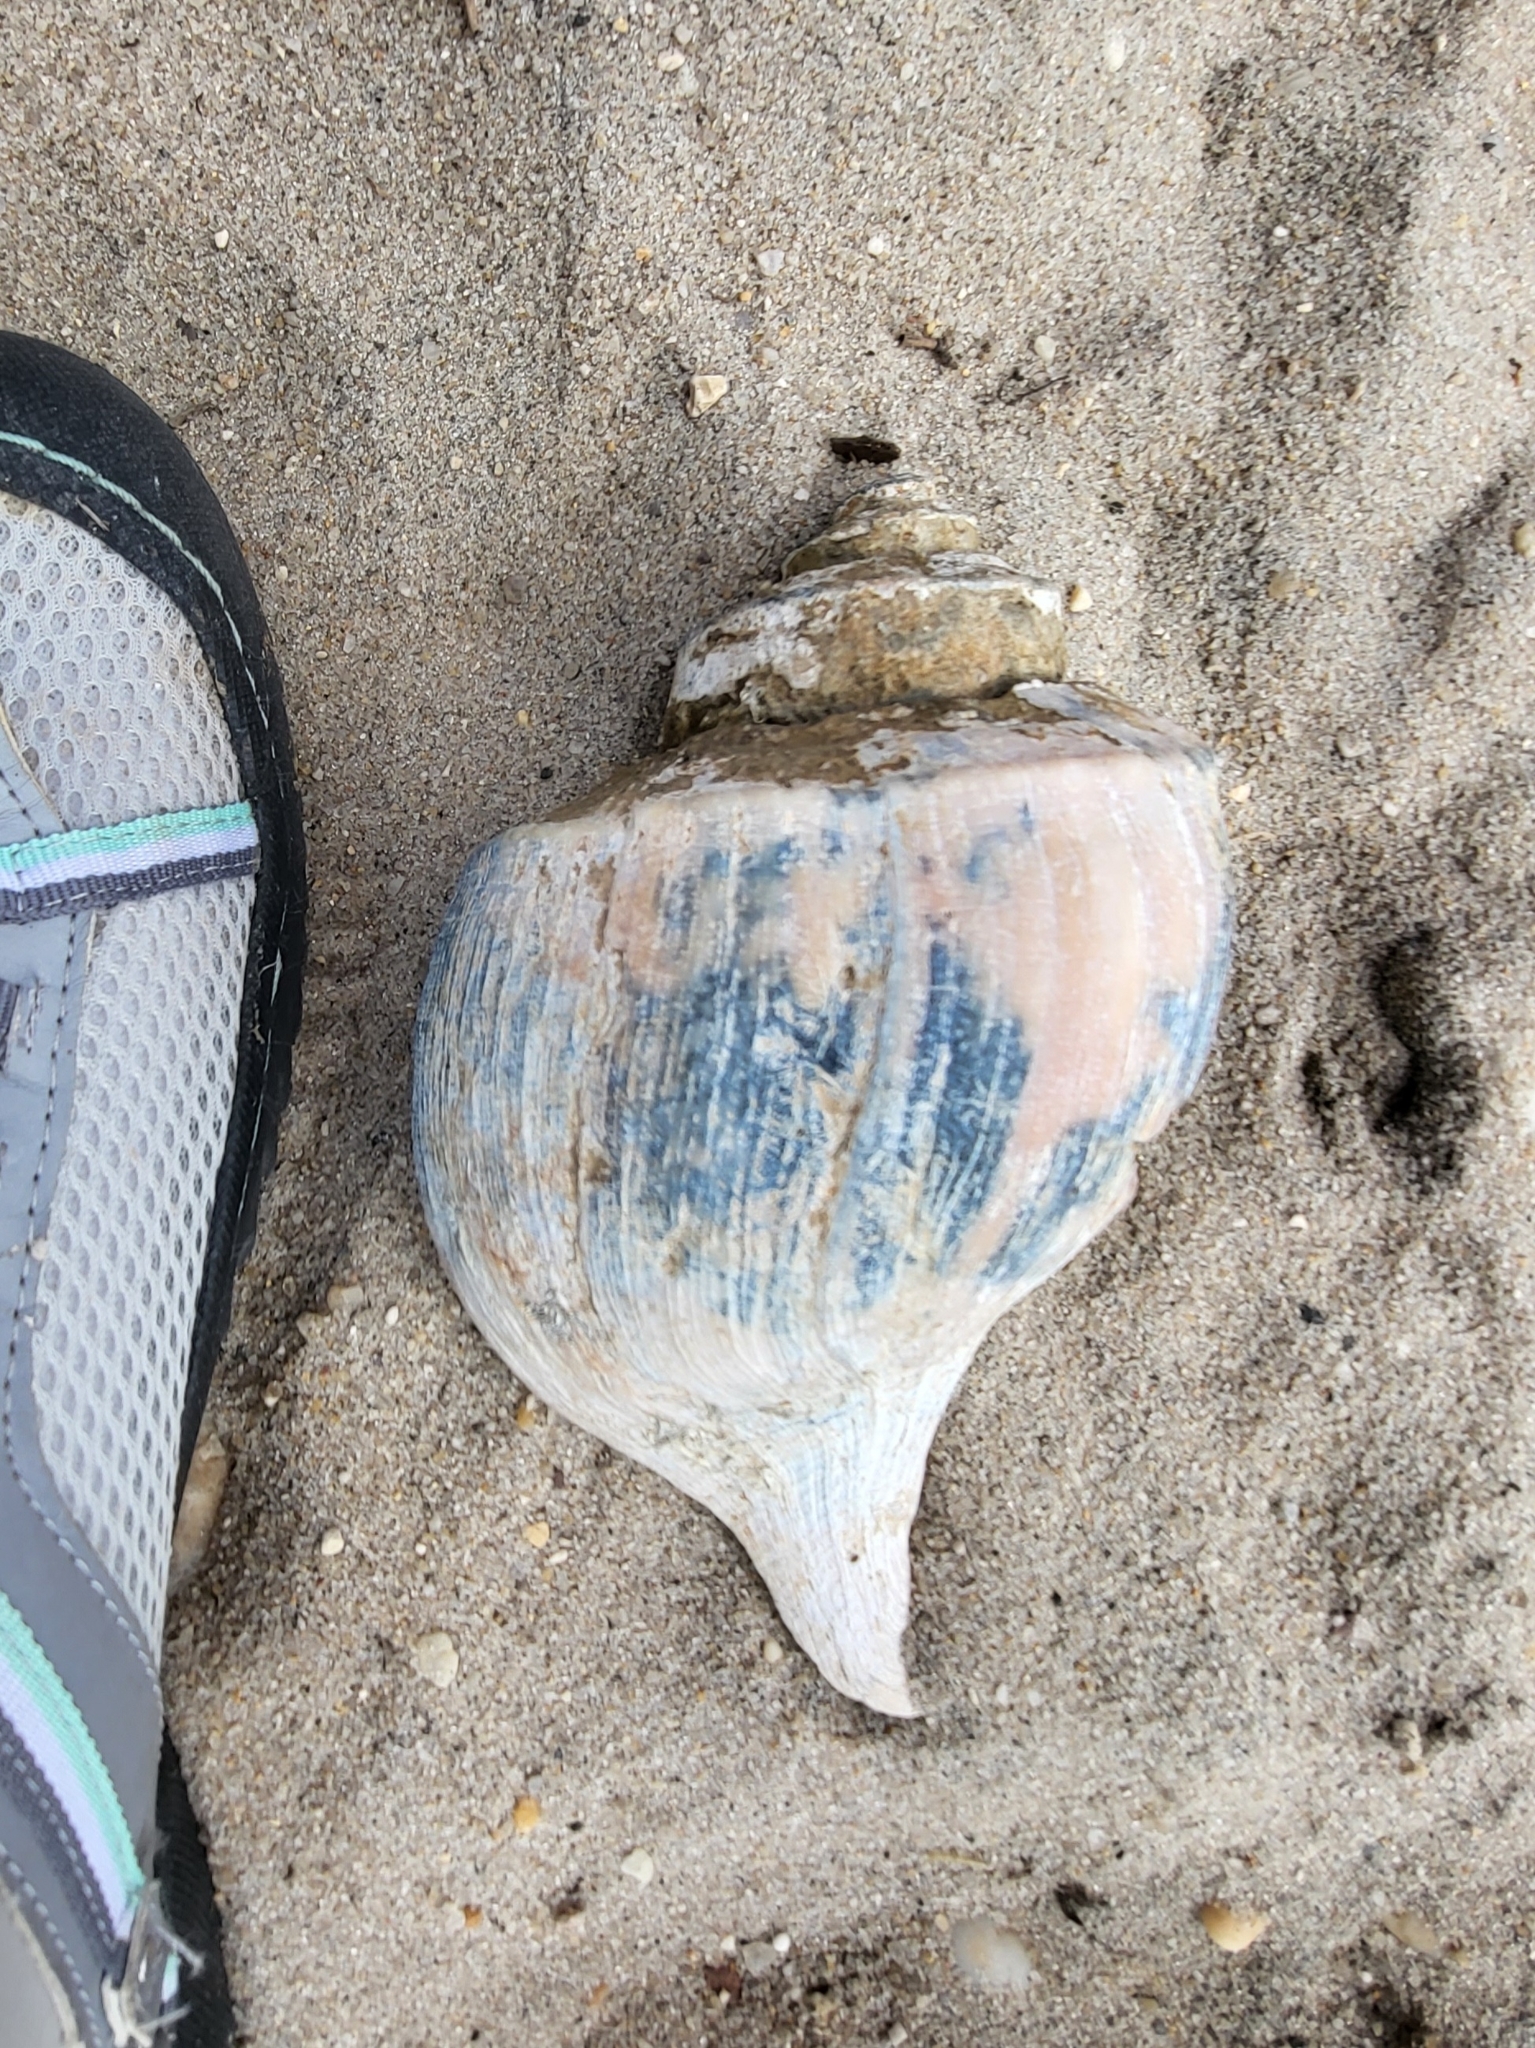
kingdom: Animalia
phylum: Mollusca
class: Gastropoda
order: Neogastropoda
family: Busyconidae
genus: Busycotypus
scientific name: Busycotypus canaliculatus
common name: Channeled whelk
